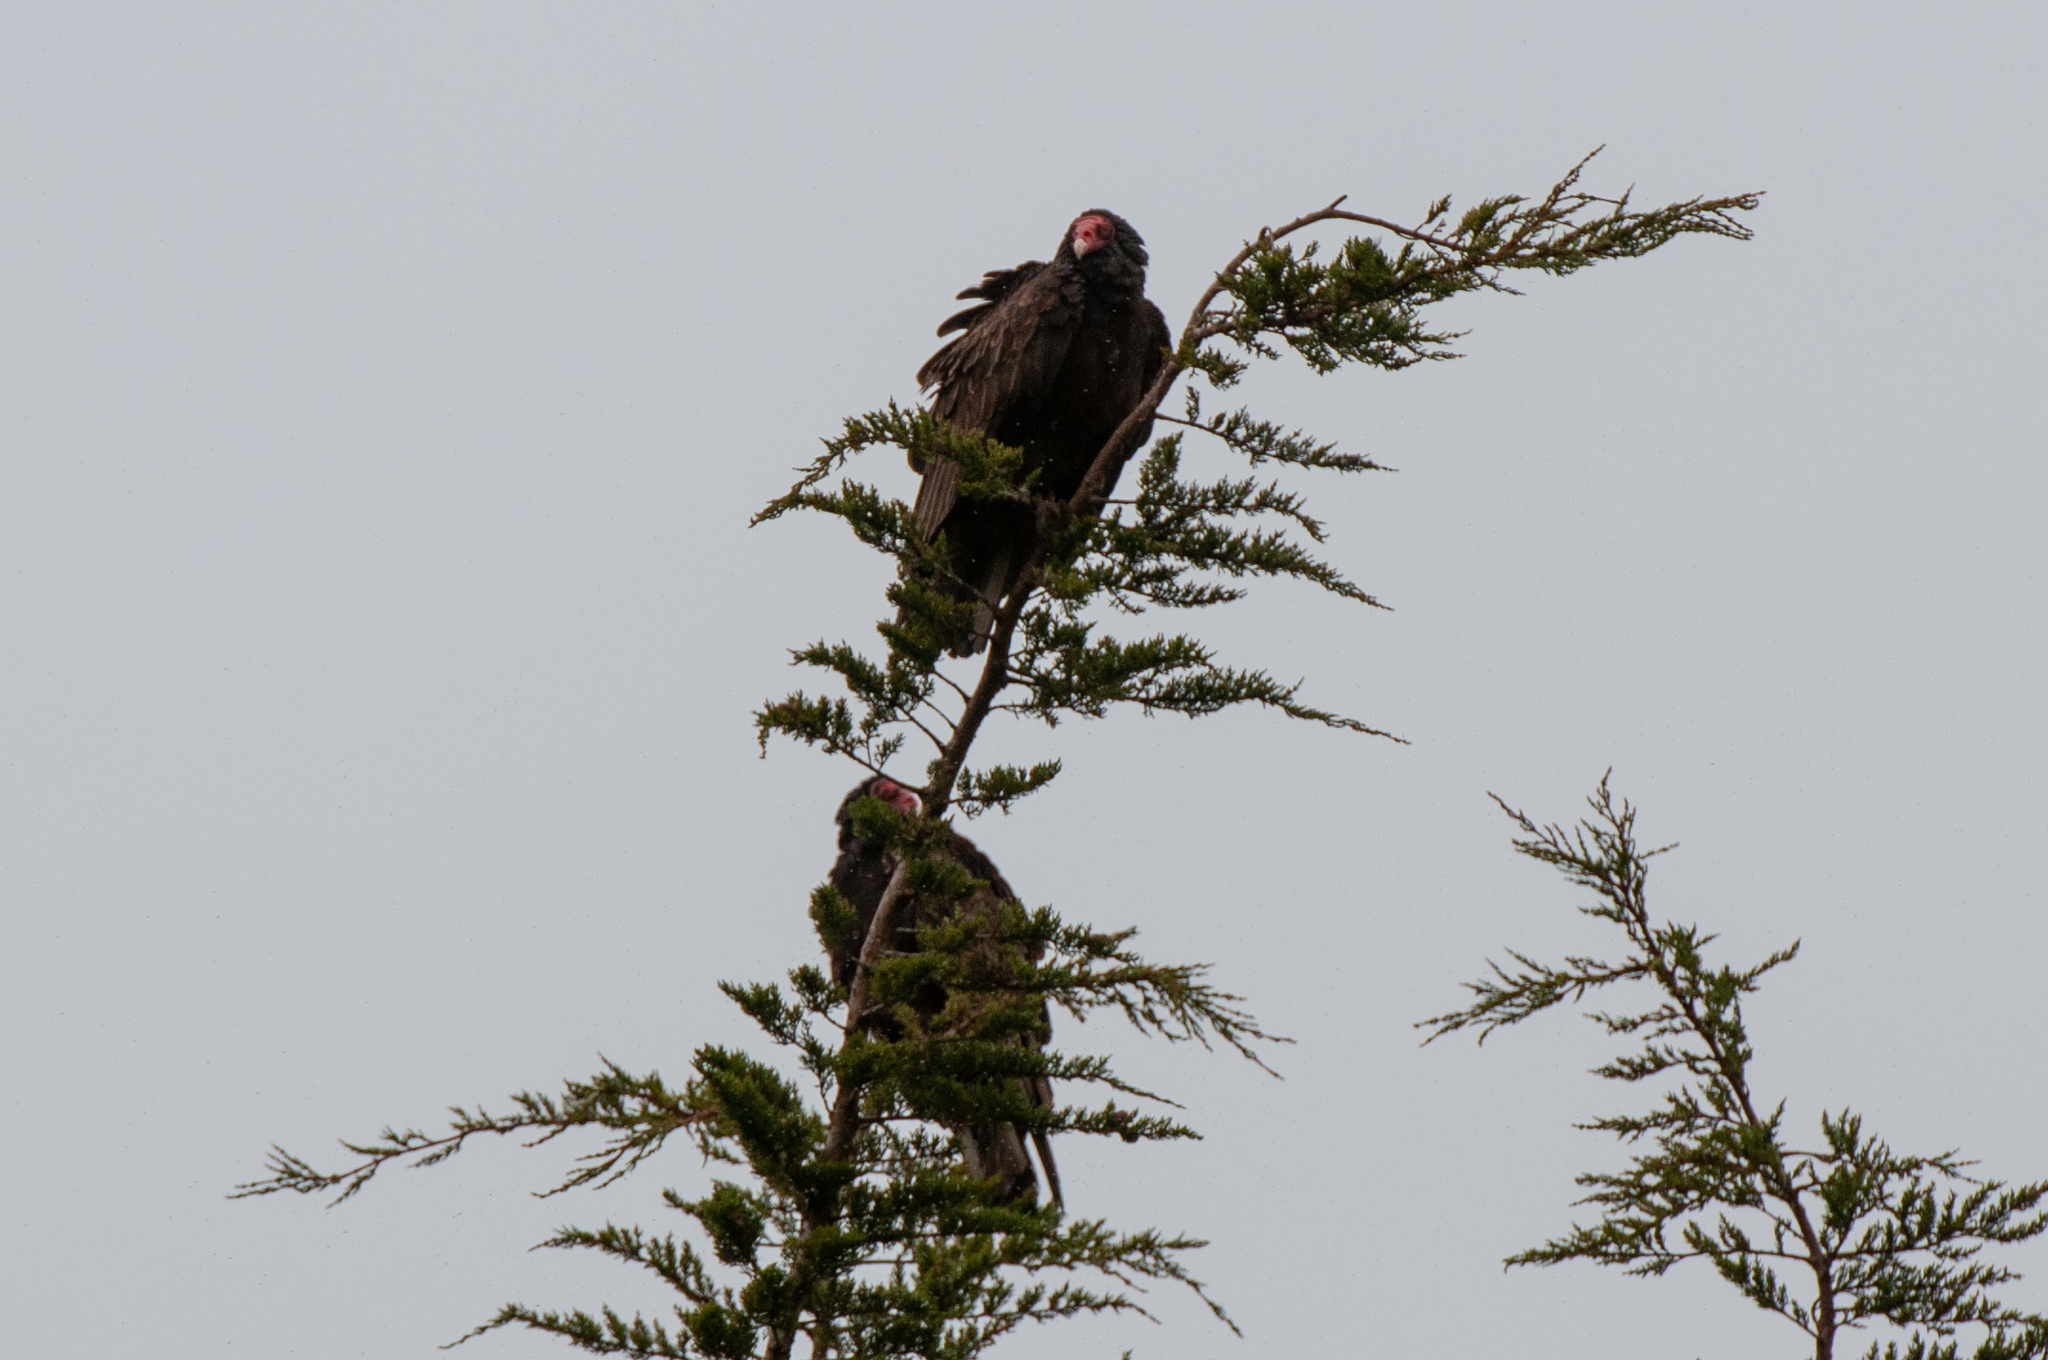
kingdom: Animalia
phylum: Chordata
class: Aves
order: Accipitriformes
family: Cathartidae
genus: Cathartes
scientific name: Cathartes aura
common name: Turkey vulture
